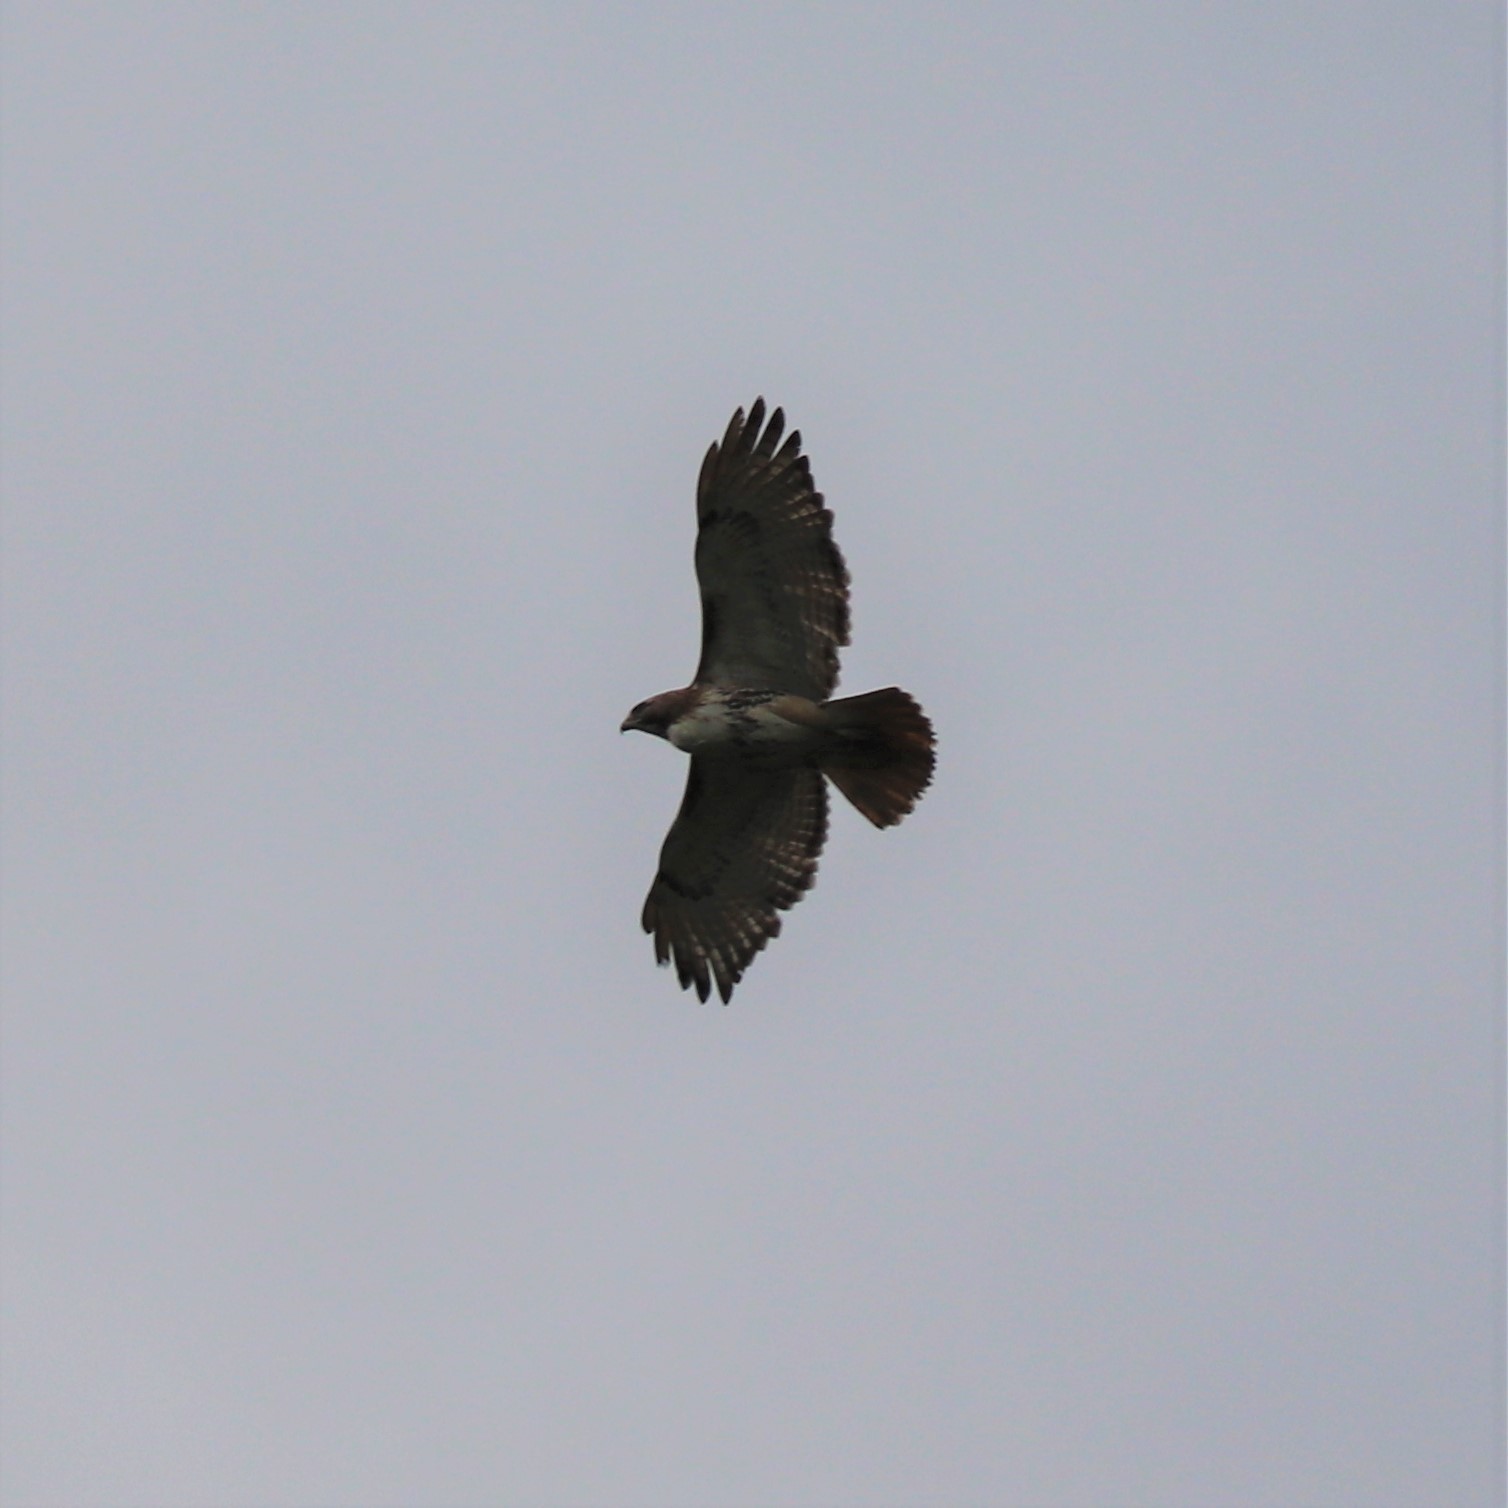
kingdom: Animalia
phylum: Chordata
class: Aves
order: Accipitriformes
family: Accipitridae
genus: Buteo
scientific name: Buteo jamaicensis
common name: Red-tailed hawk
